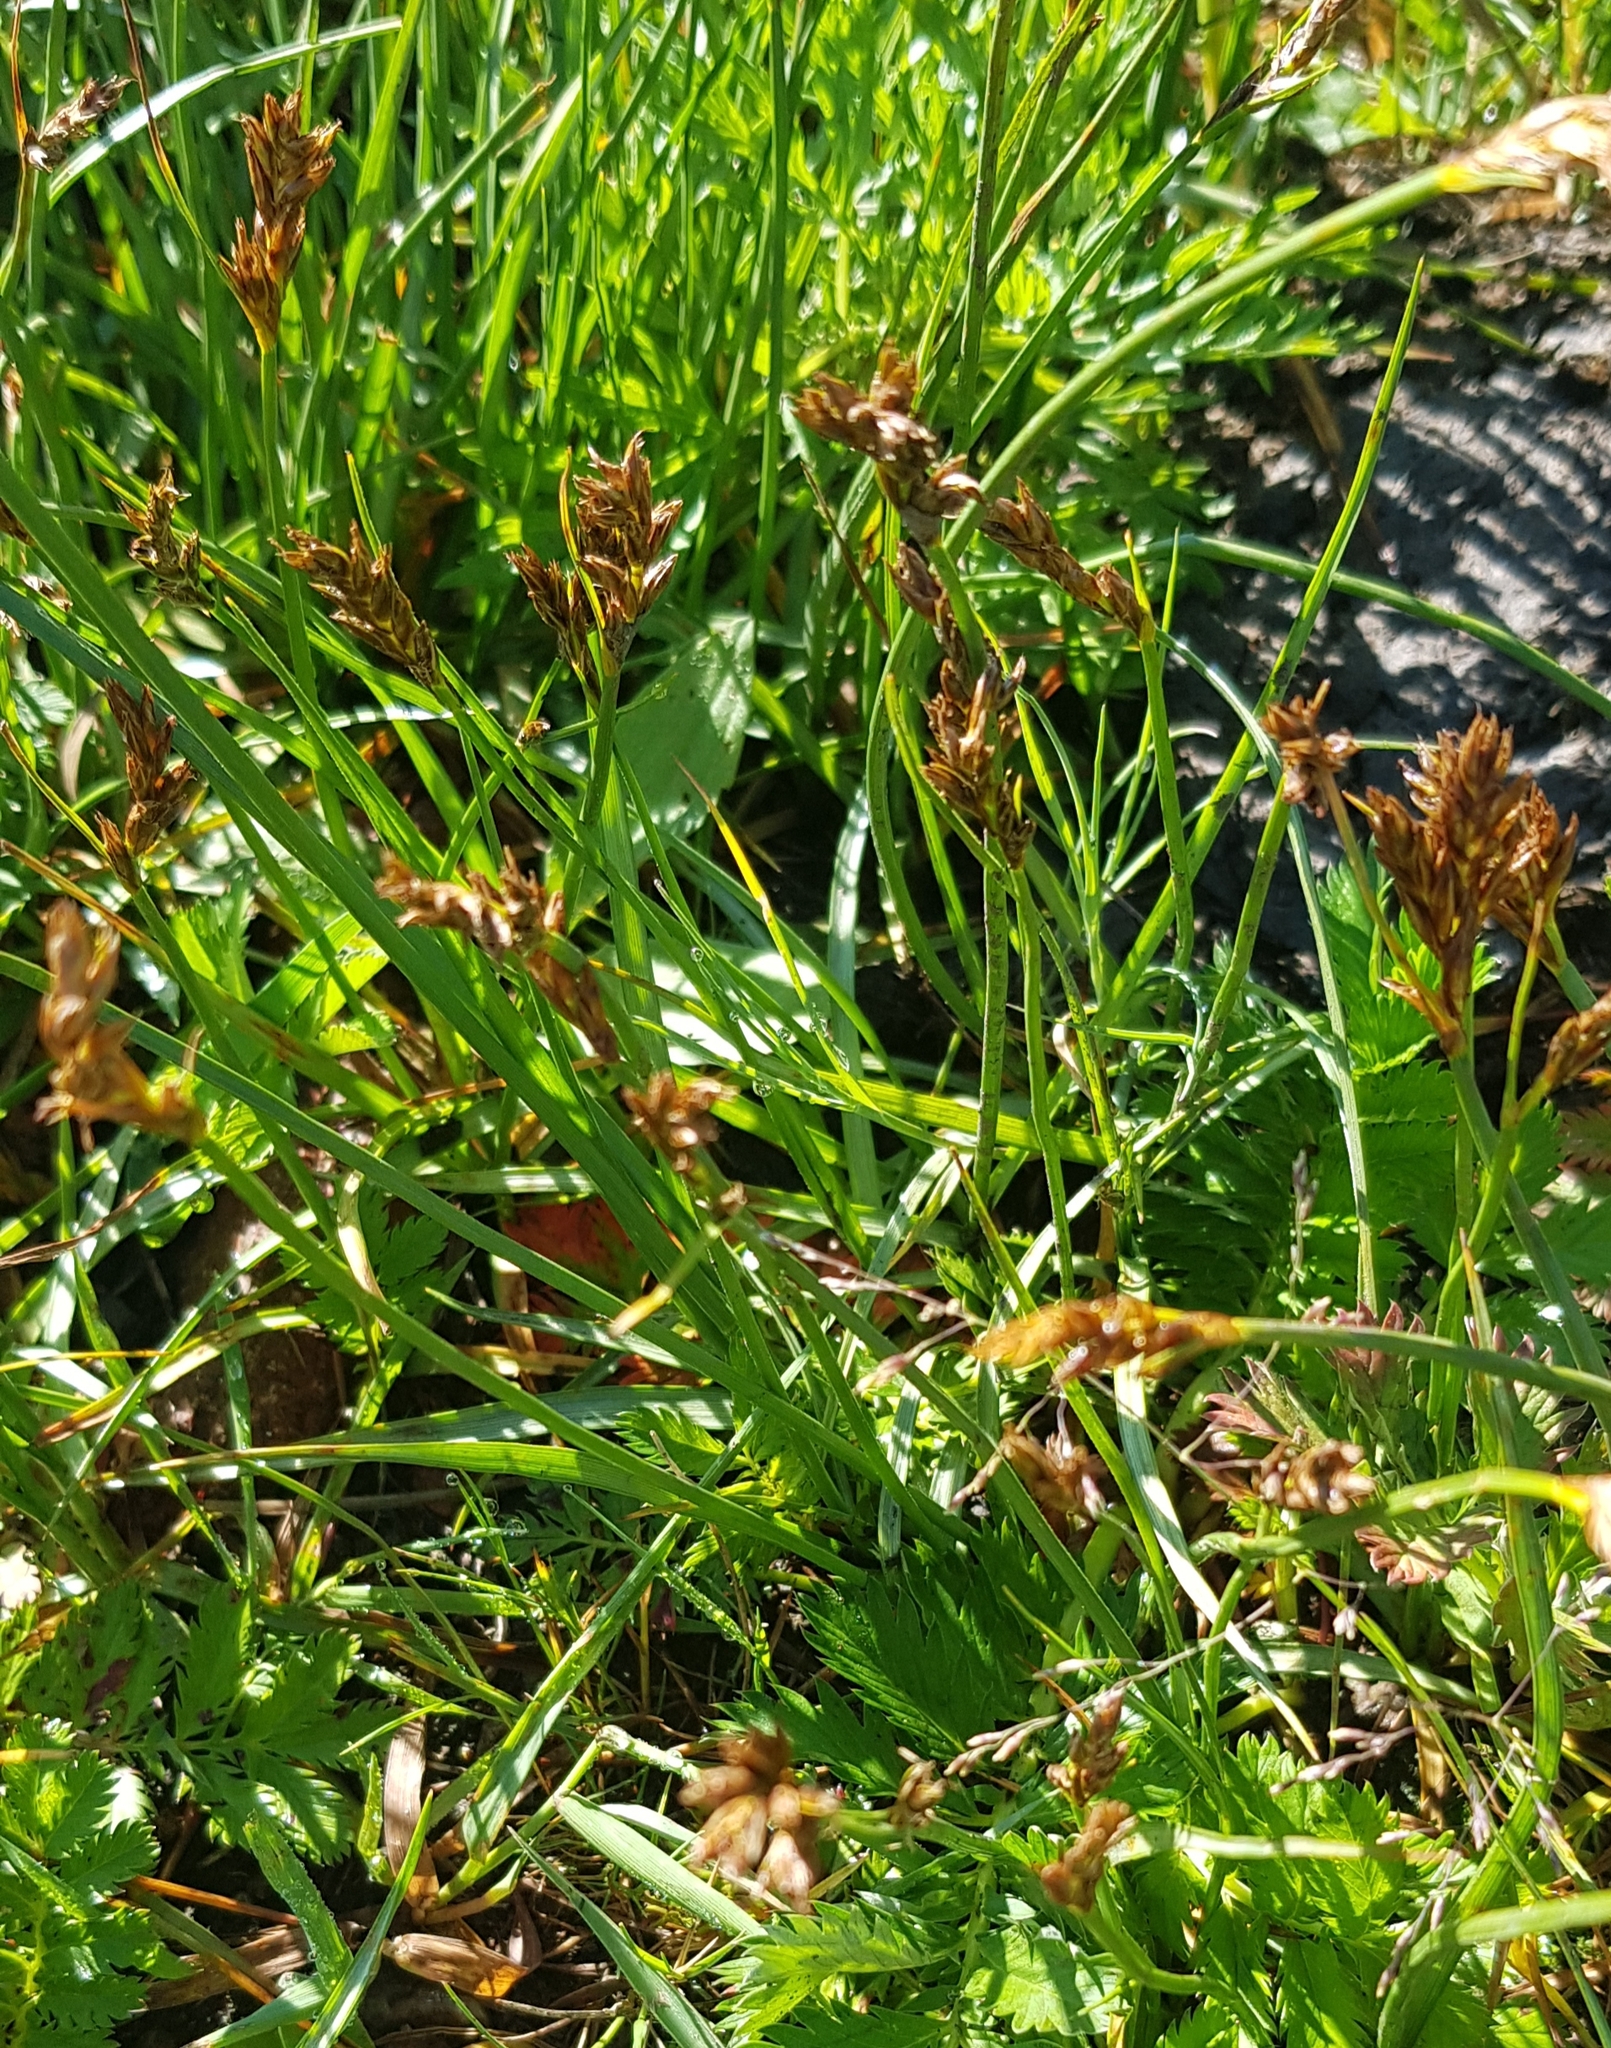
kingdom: Plantae
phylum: Tracheophyta
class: Liliopsida
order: Poales
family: Cyperaceae
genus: Carex
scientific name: Carex praecox
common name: Early sedge
